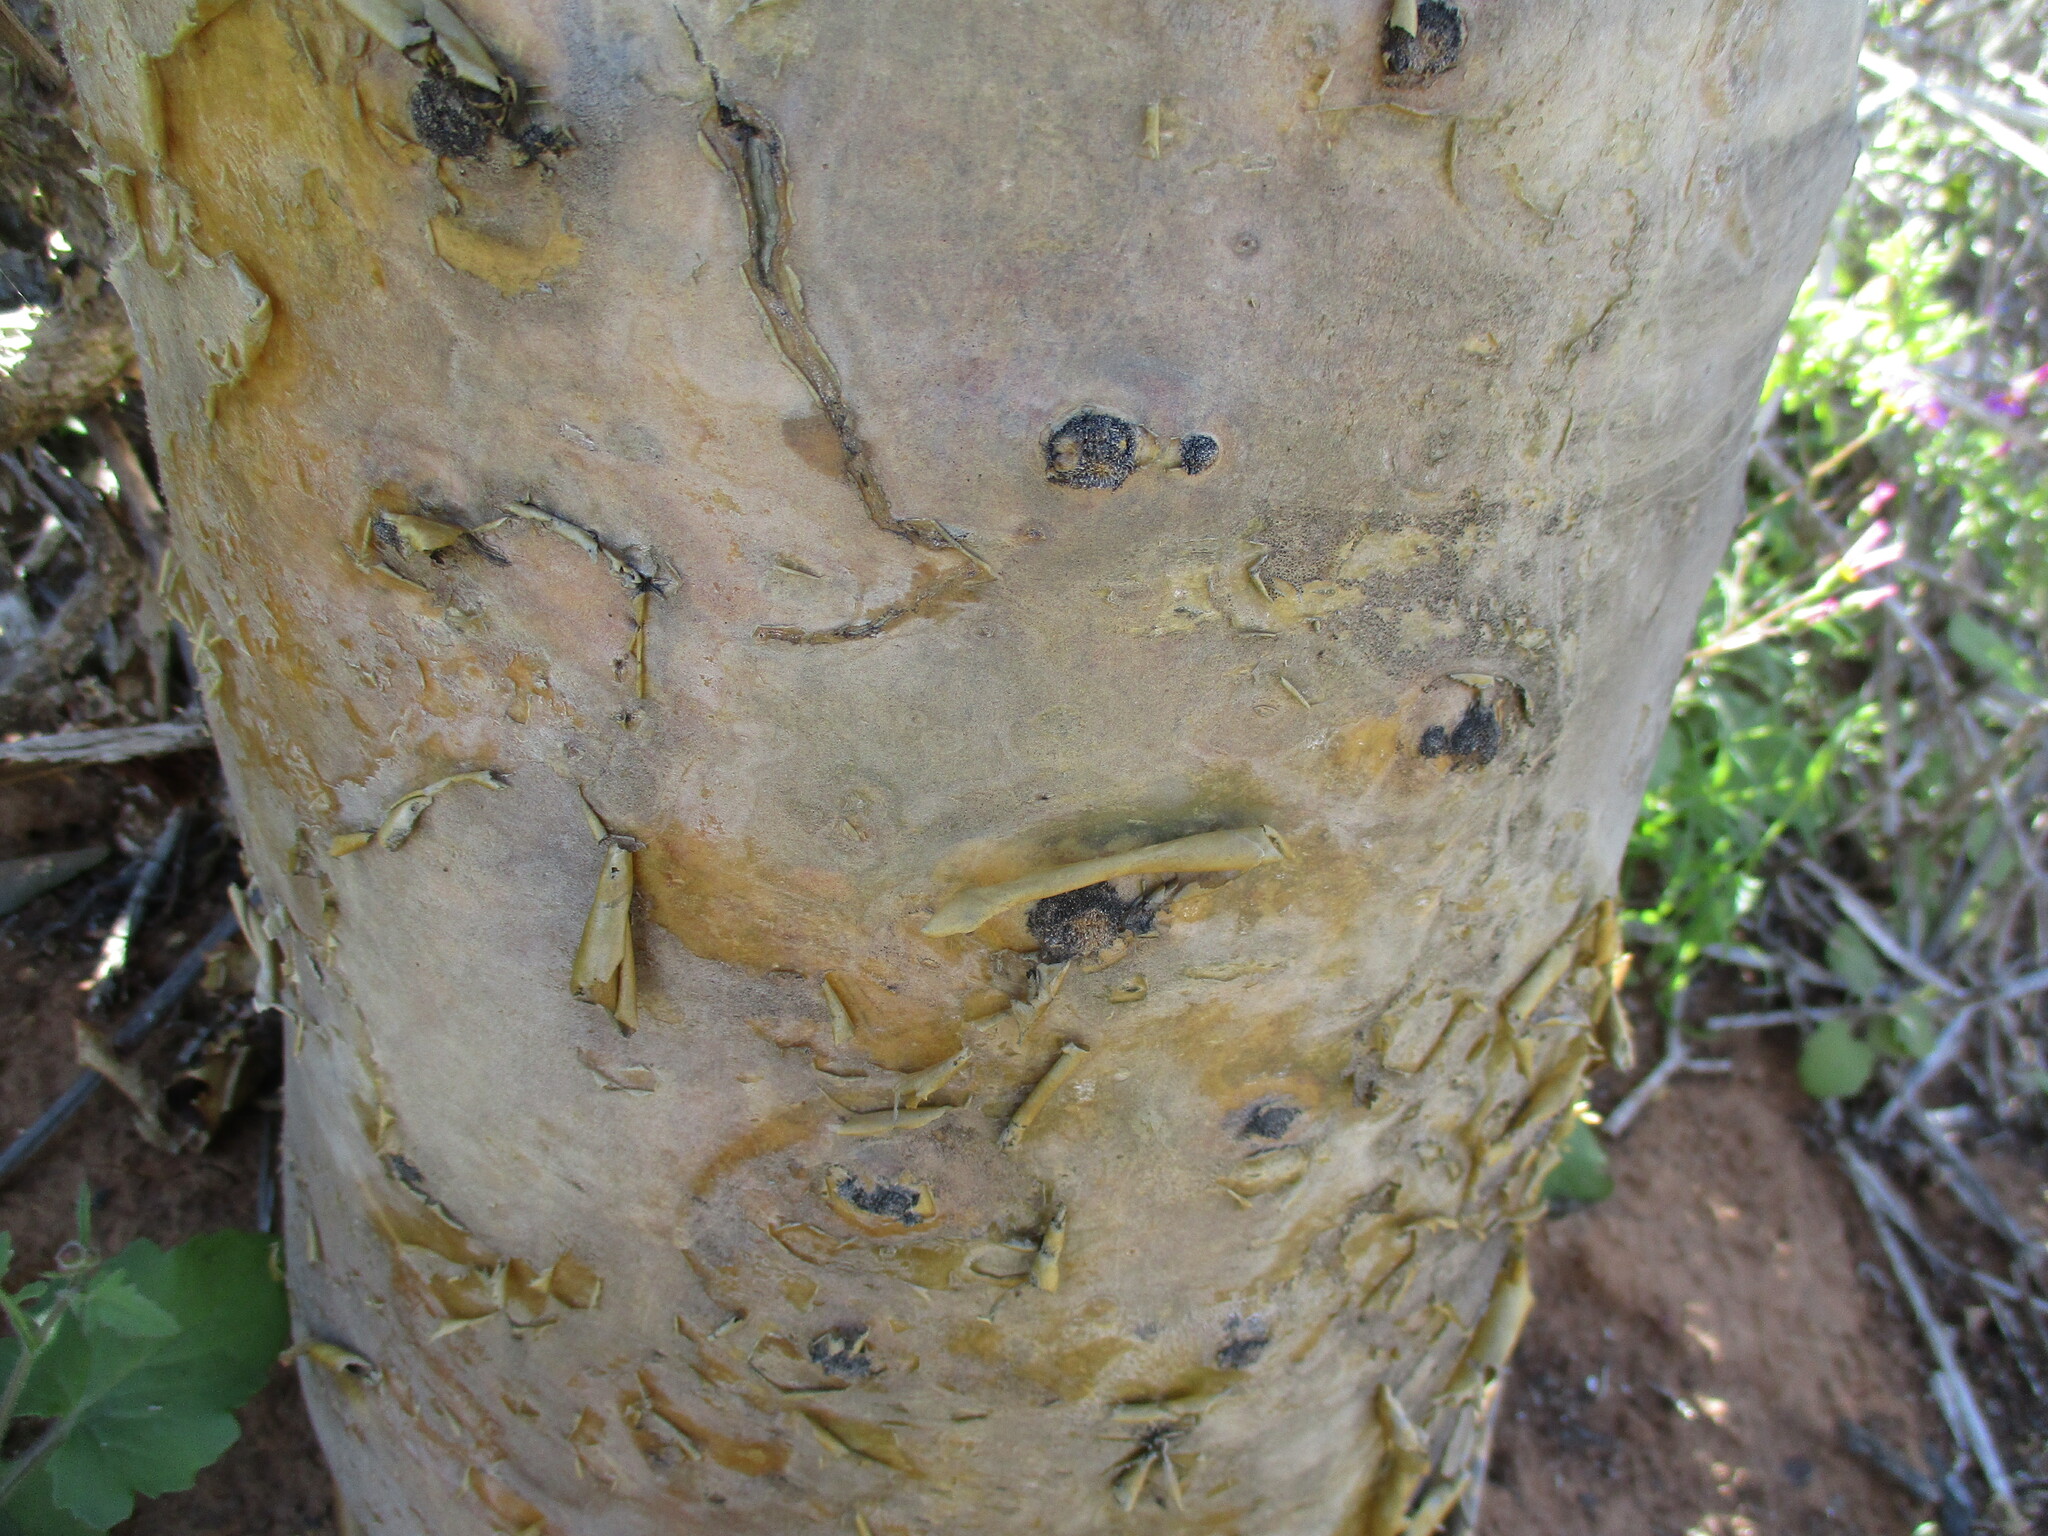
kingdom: Plantae
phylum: Tracheophyta
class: Magnoliopsida
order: Saxifragales
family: Crassulaceae
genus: Tylecodon
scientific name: Tylecodon paniculatus
